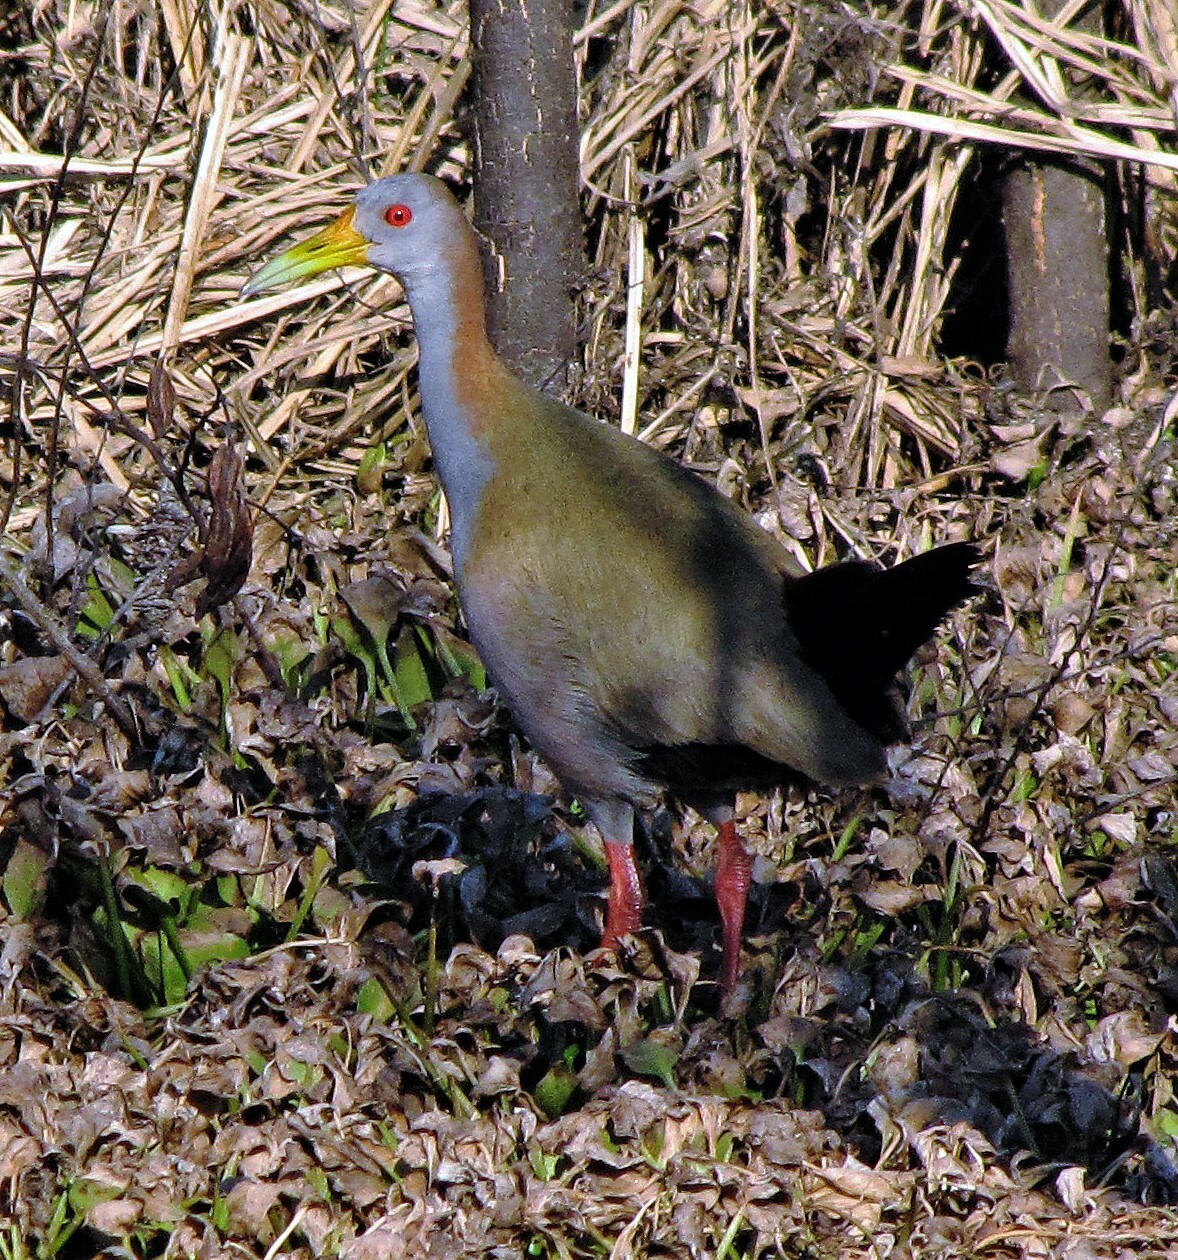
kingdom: Animalia
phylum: Chordata
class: Aves
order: Gruiformes
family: Rallidae
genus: Aramides
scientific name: Aramides ypecaha
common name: Giant wood rail
